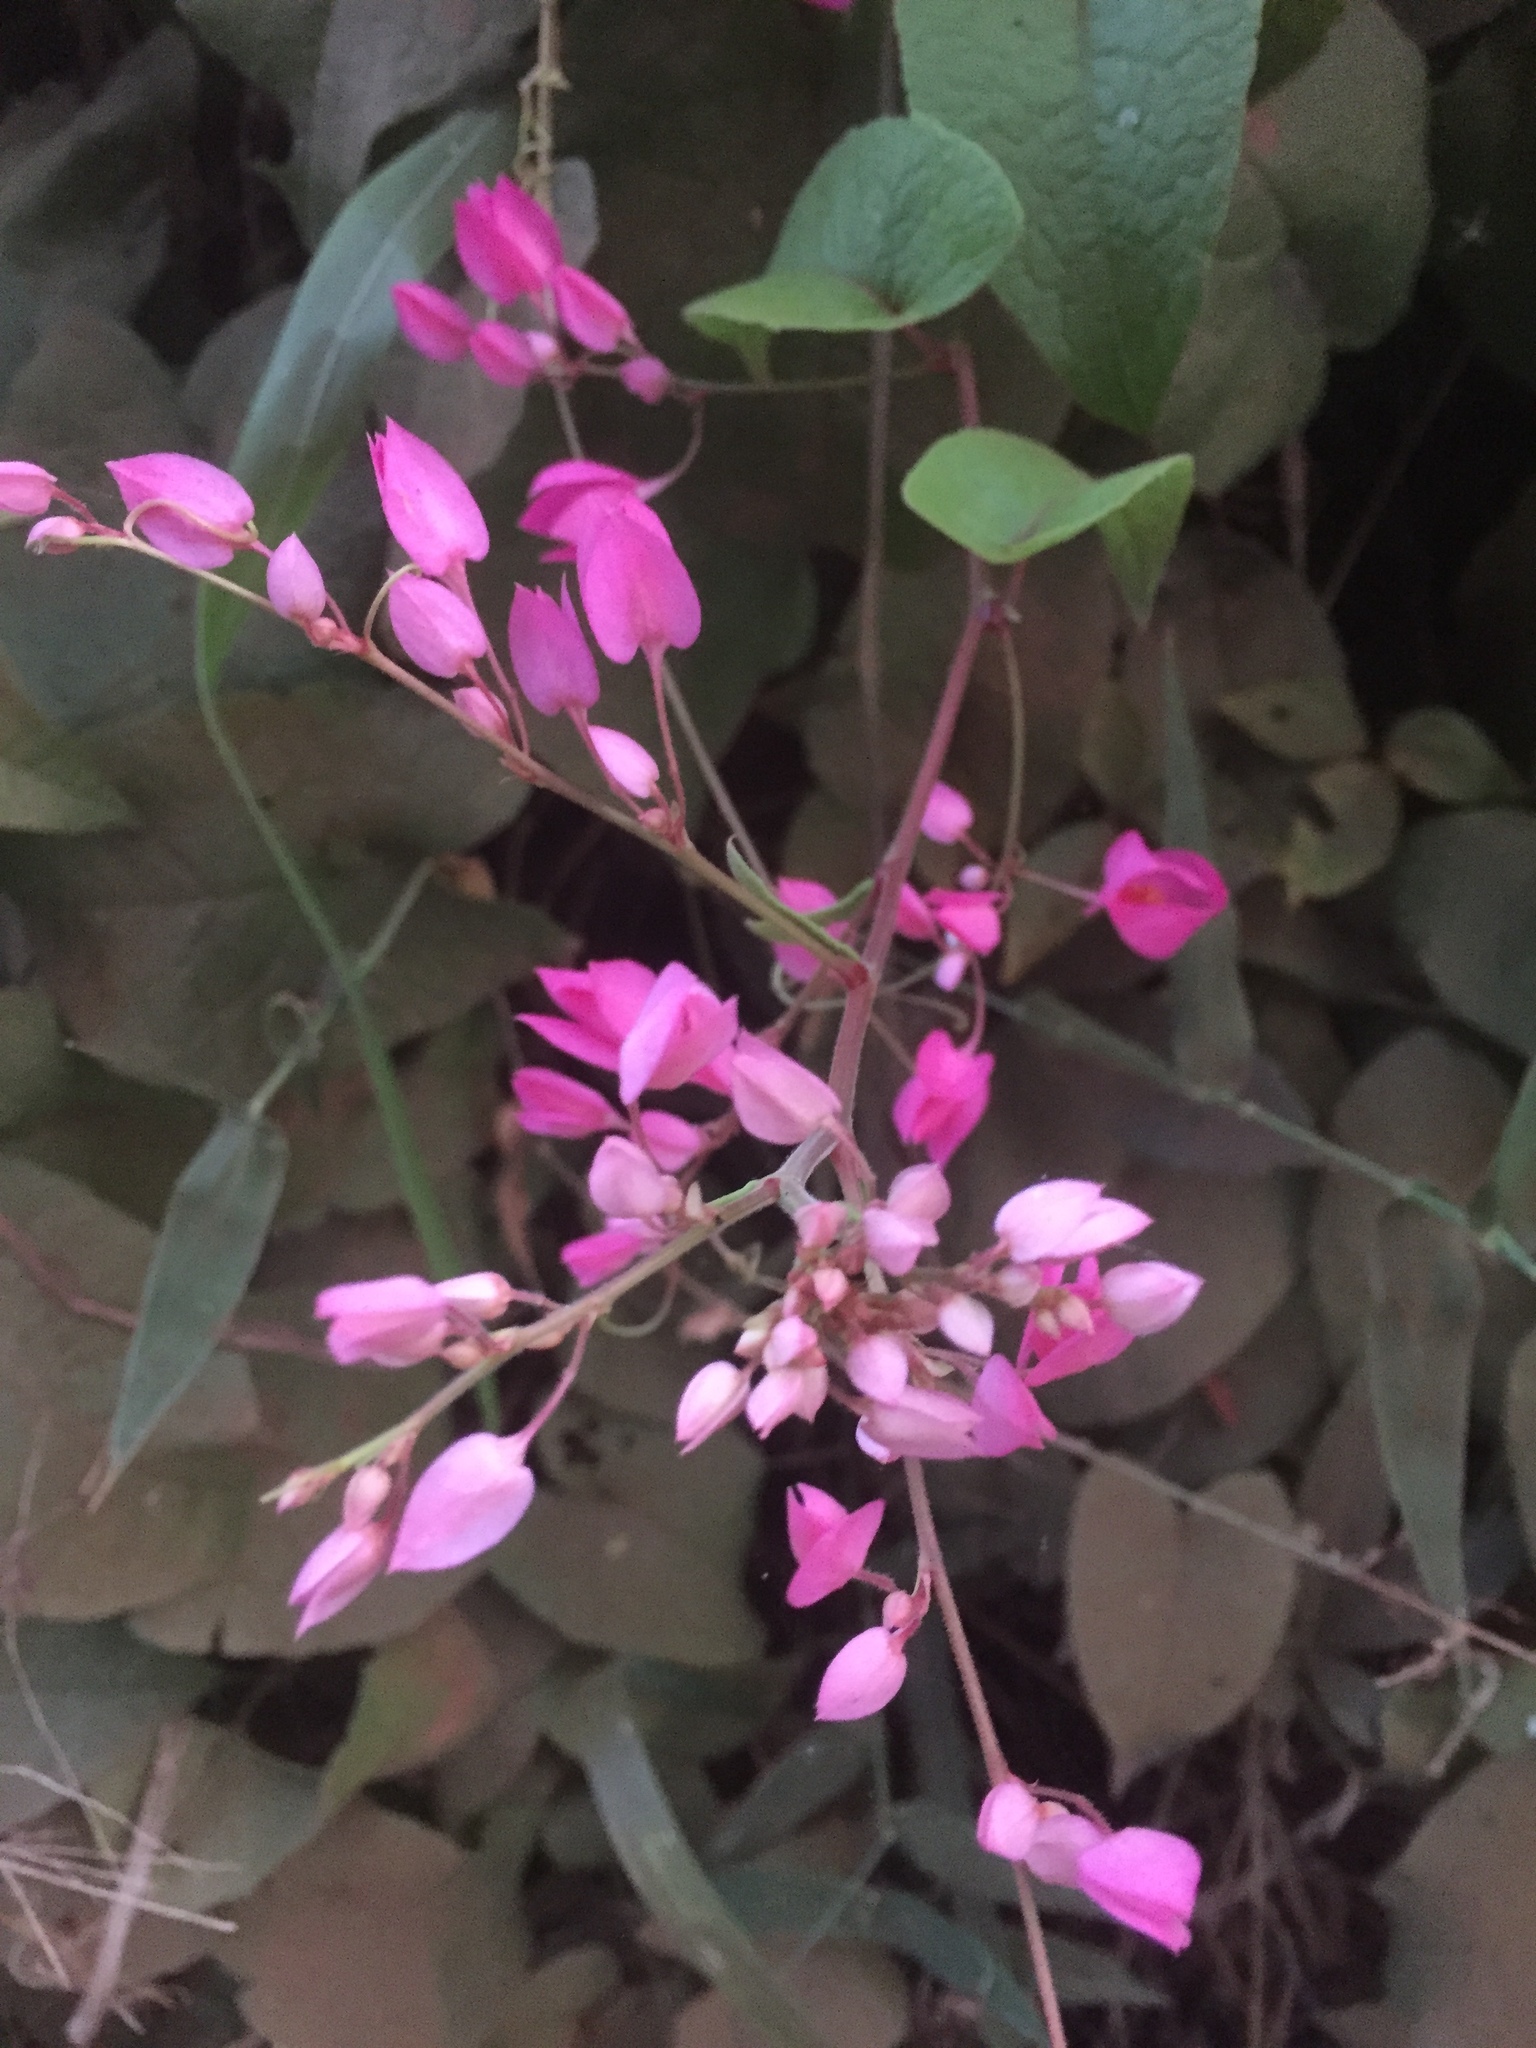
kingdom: Plantae
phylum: Tracheophyta
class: Magnoliopsida
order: Caryophyllales
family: Polygonaceae
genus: Antigonon
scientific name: Antigonon leptopus
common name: Coral vine
